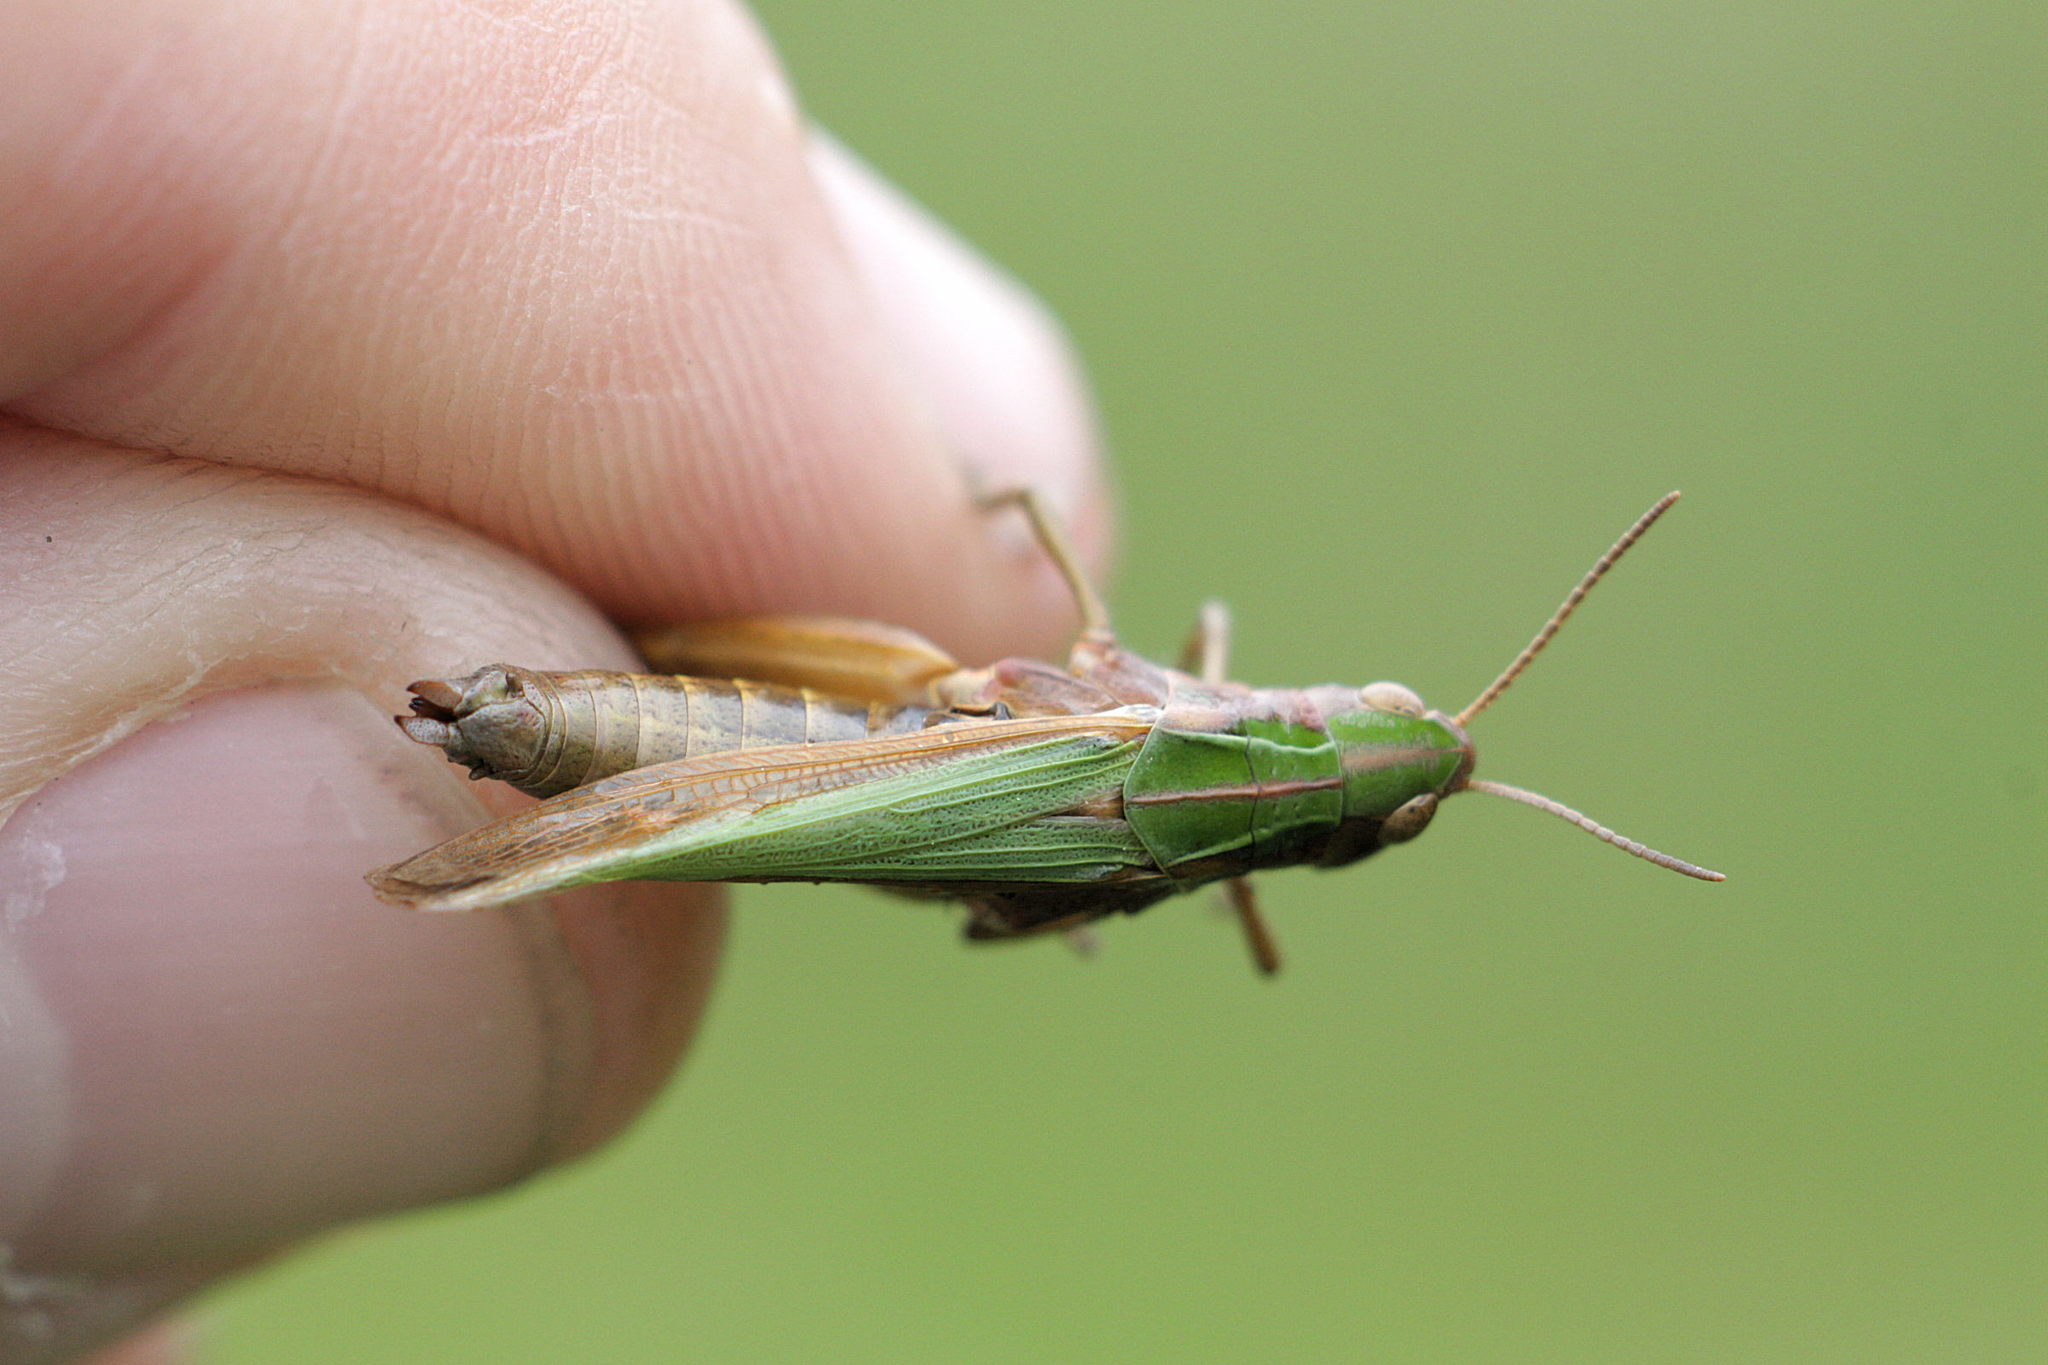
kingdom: Animalia
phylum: Arthropoda
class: Insecta
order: Orthoptera
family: Acrididae
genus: Omocestus
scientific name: Omocestus viridulus
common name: Common green grasshopper
